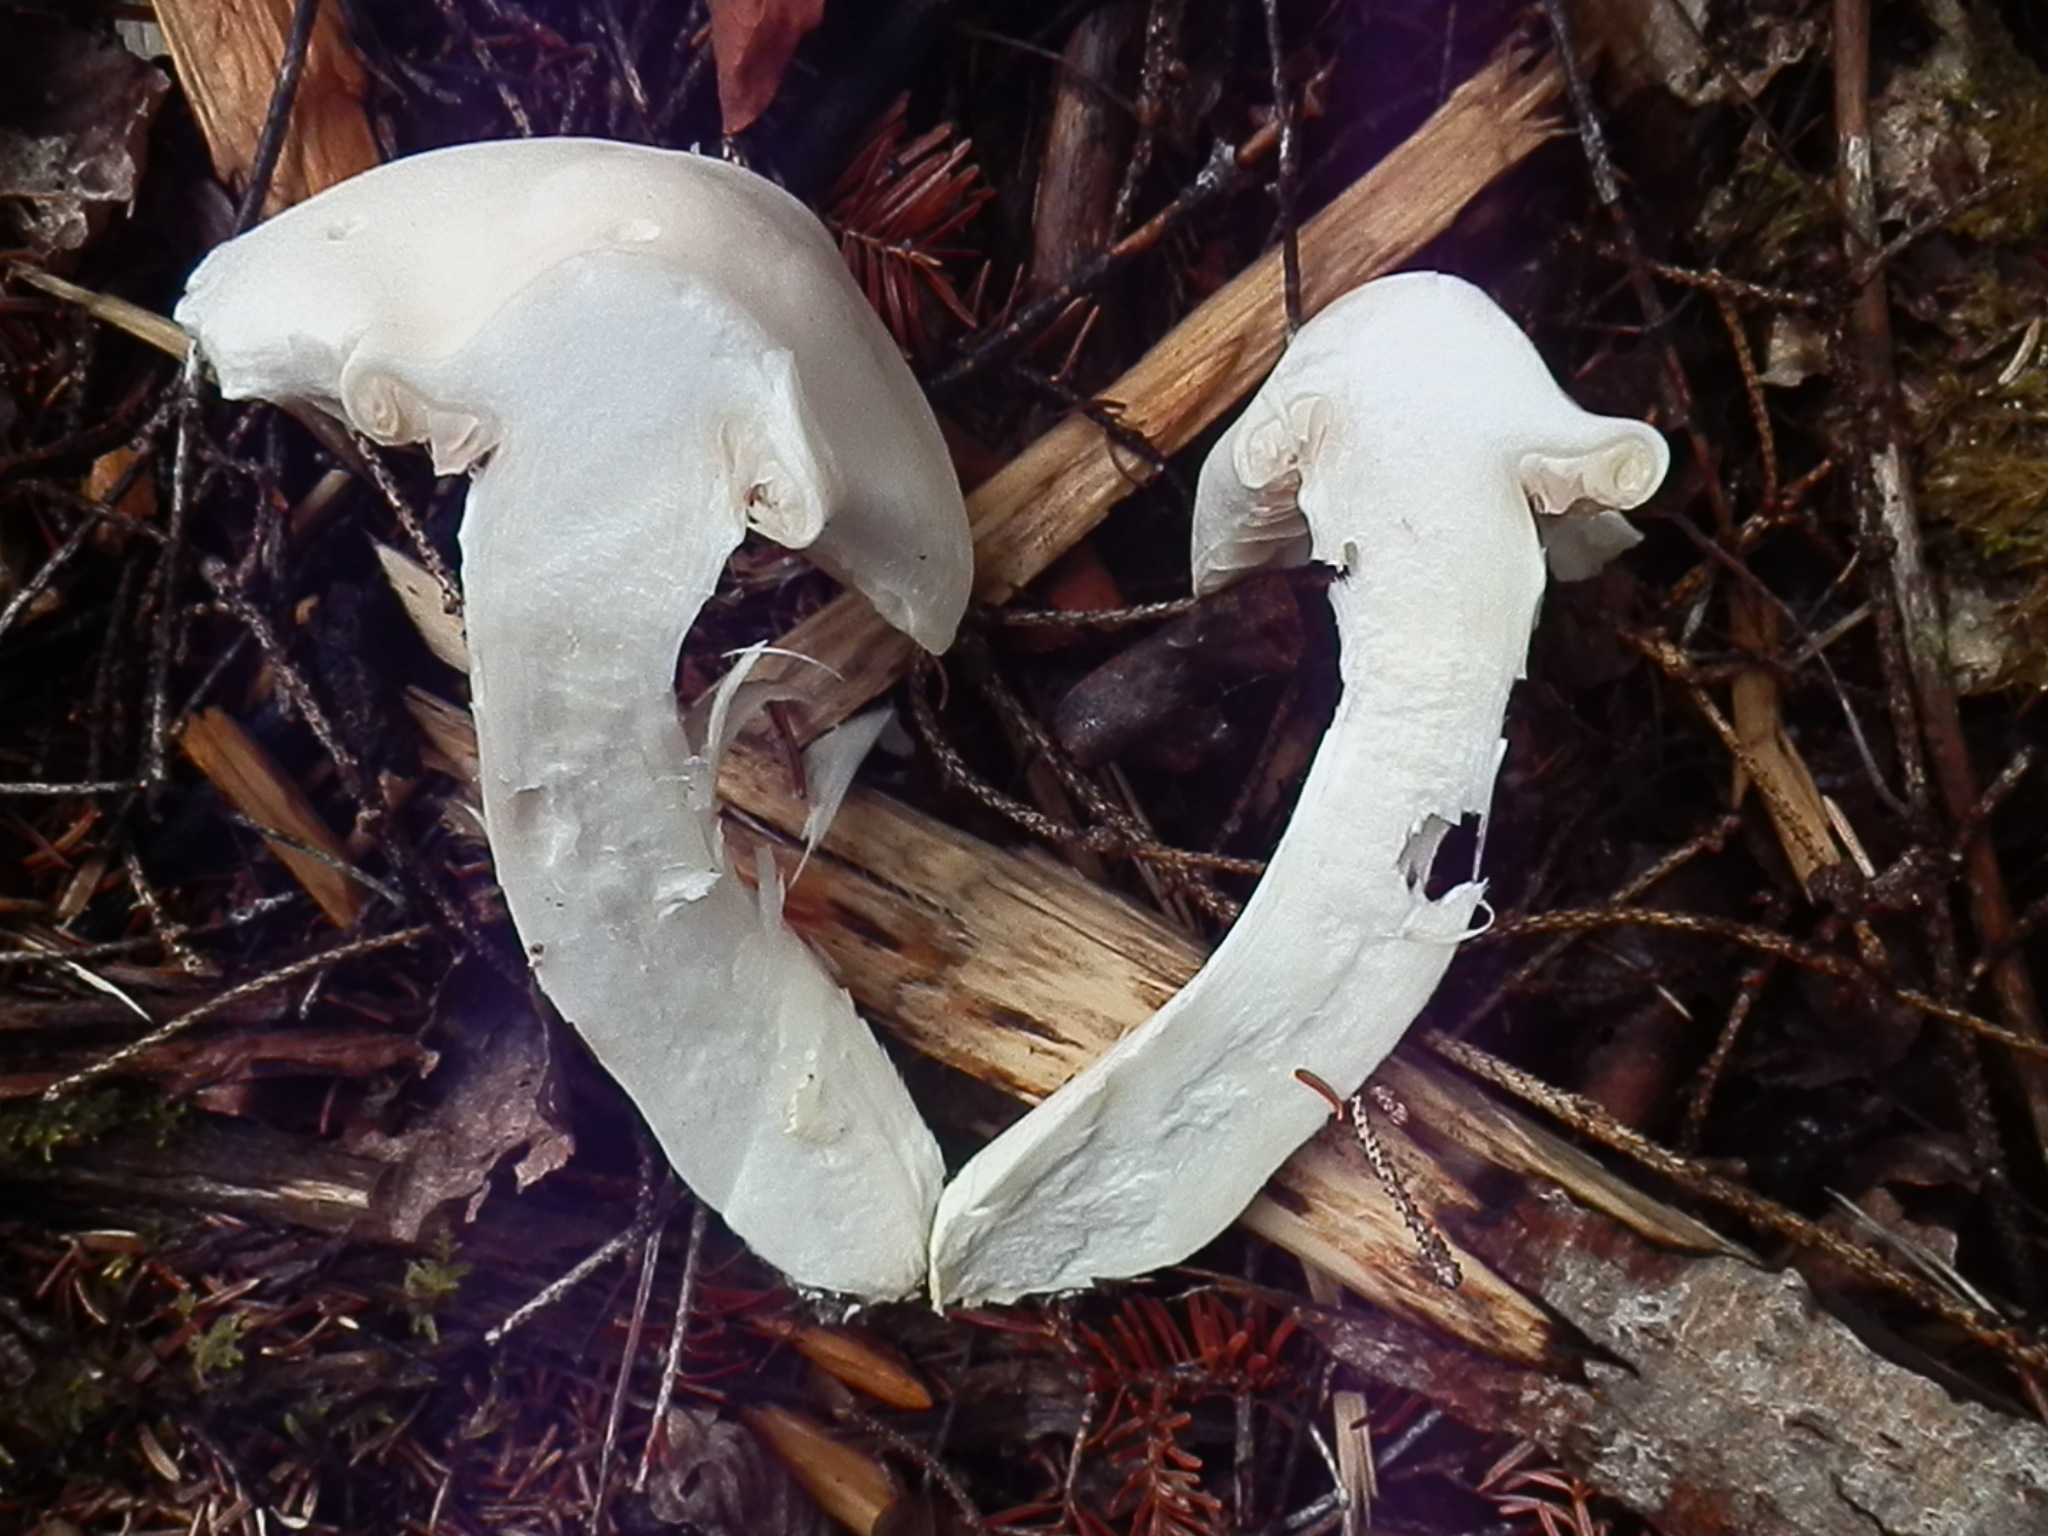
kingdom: Fungi
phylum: Basidiomycota
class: Agaricomycetes
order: Agaricales
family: Entolomataceae
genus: Entoloma
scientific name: Entoloma subsinuatum
